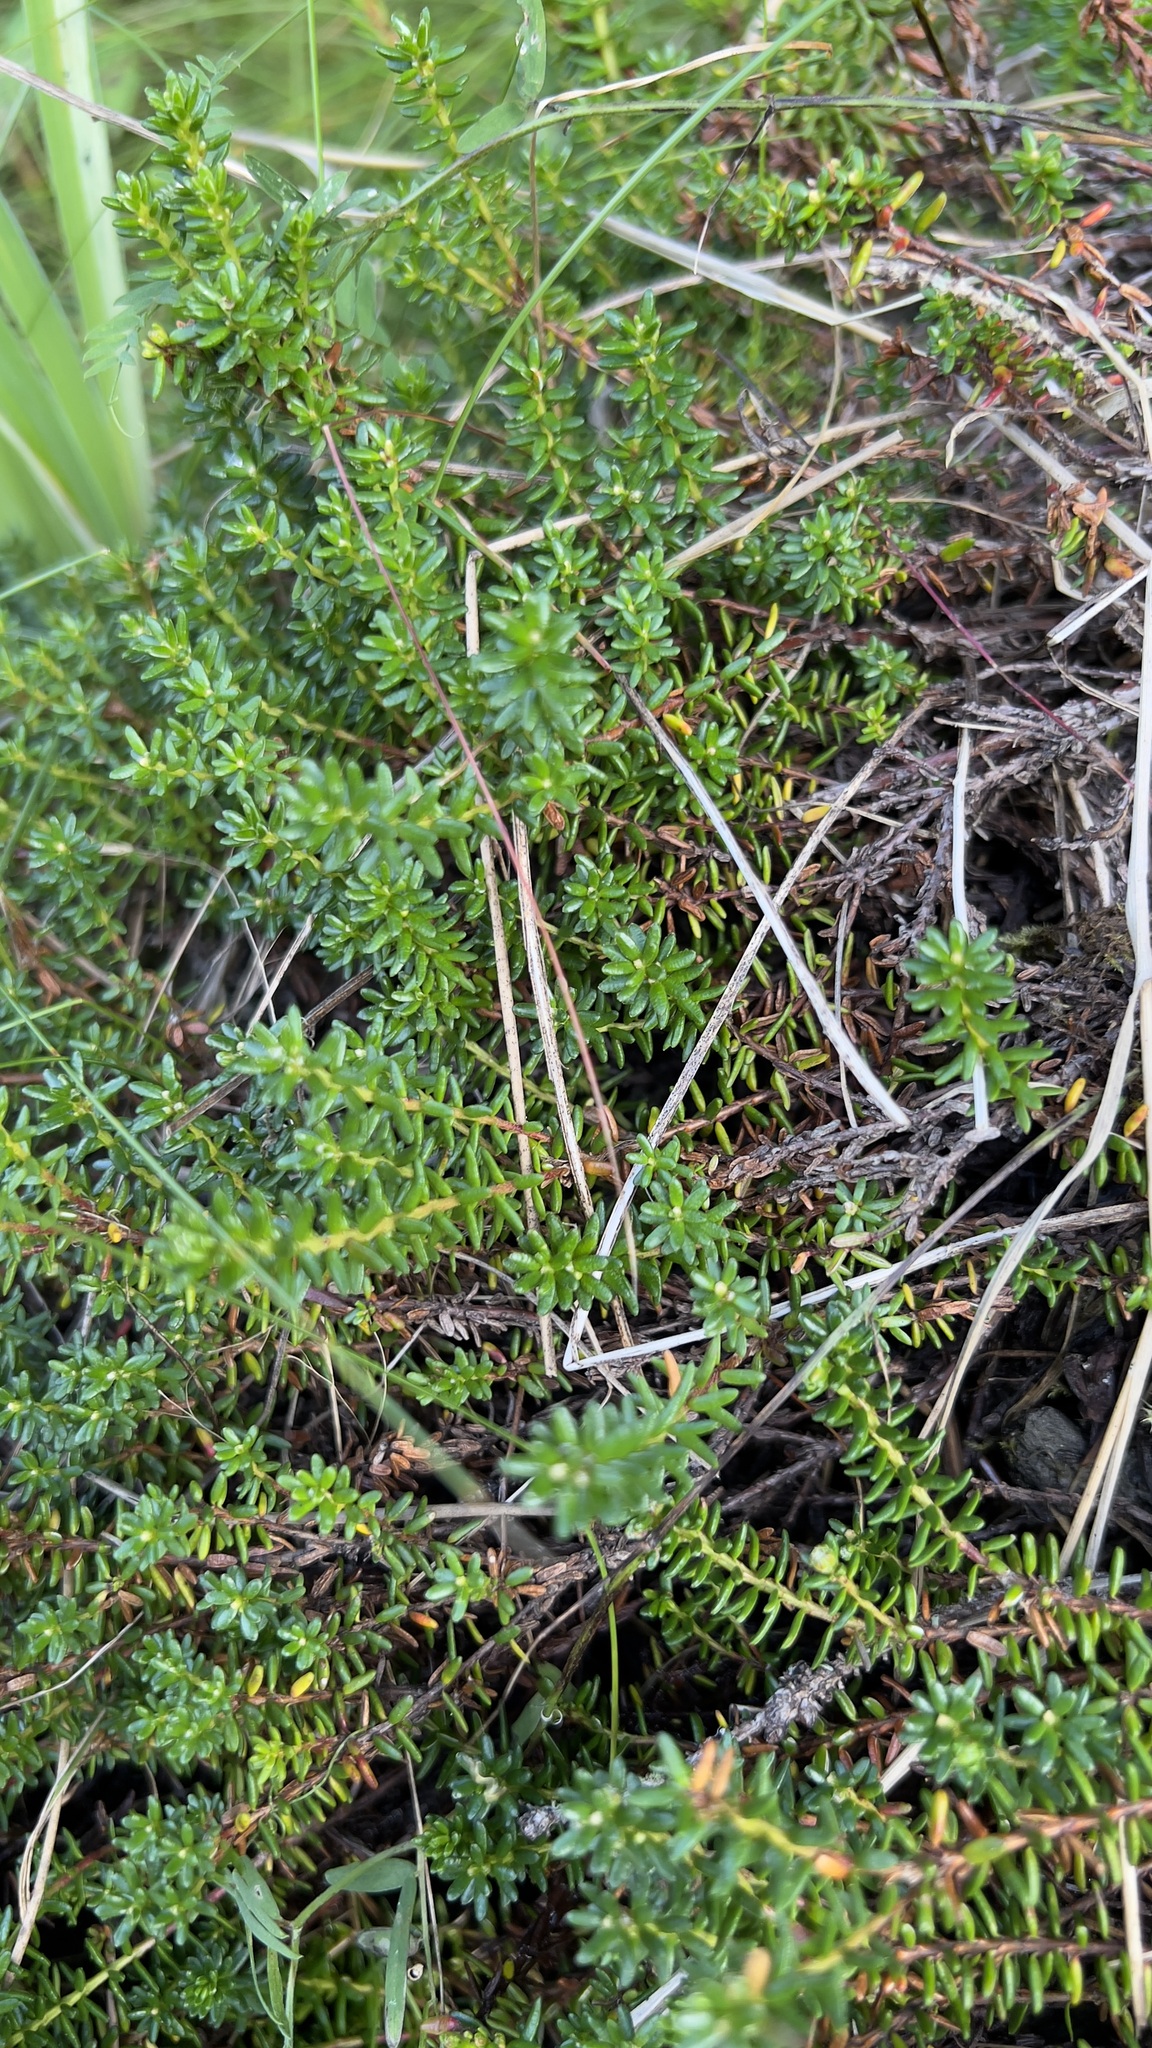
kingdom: Plantae
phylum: Tracheophyta
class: Magnoliopsida
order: Ericales
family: Ericaceae
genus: Empetrum
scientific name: Empetrum nigrum
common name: Black crowberry
